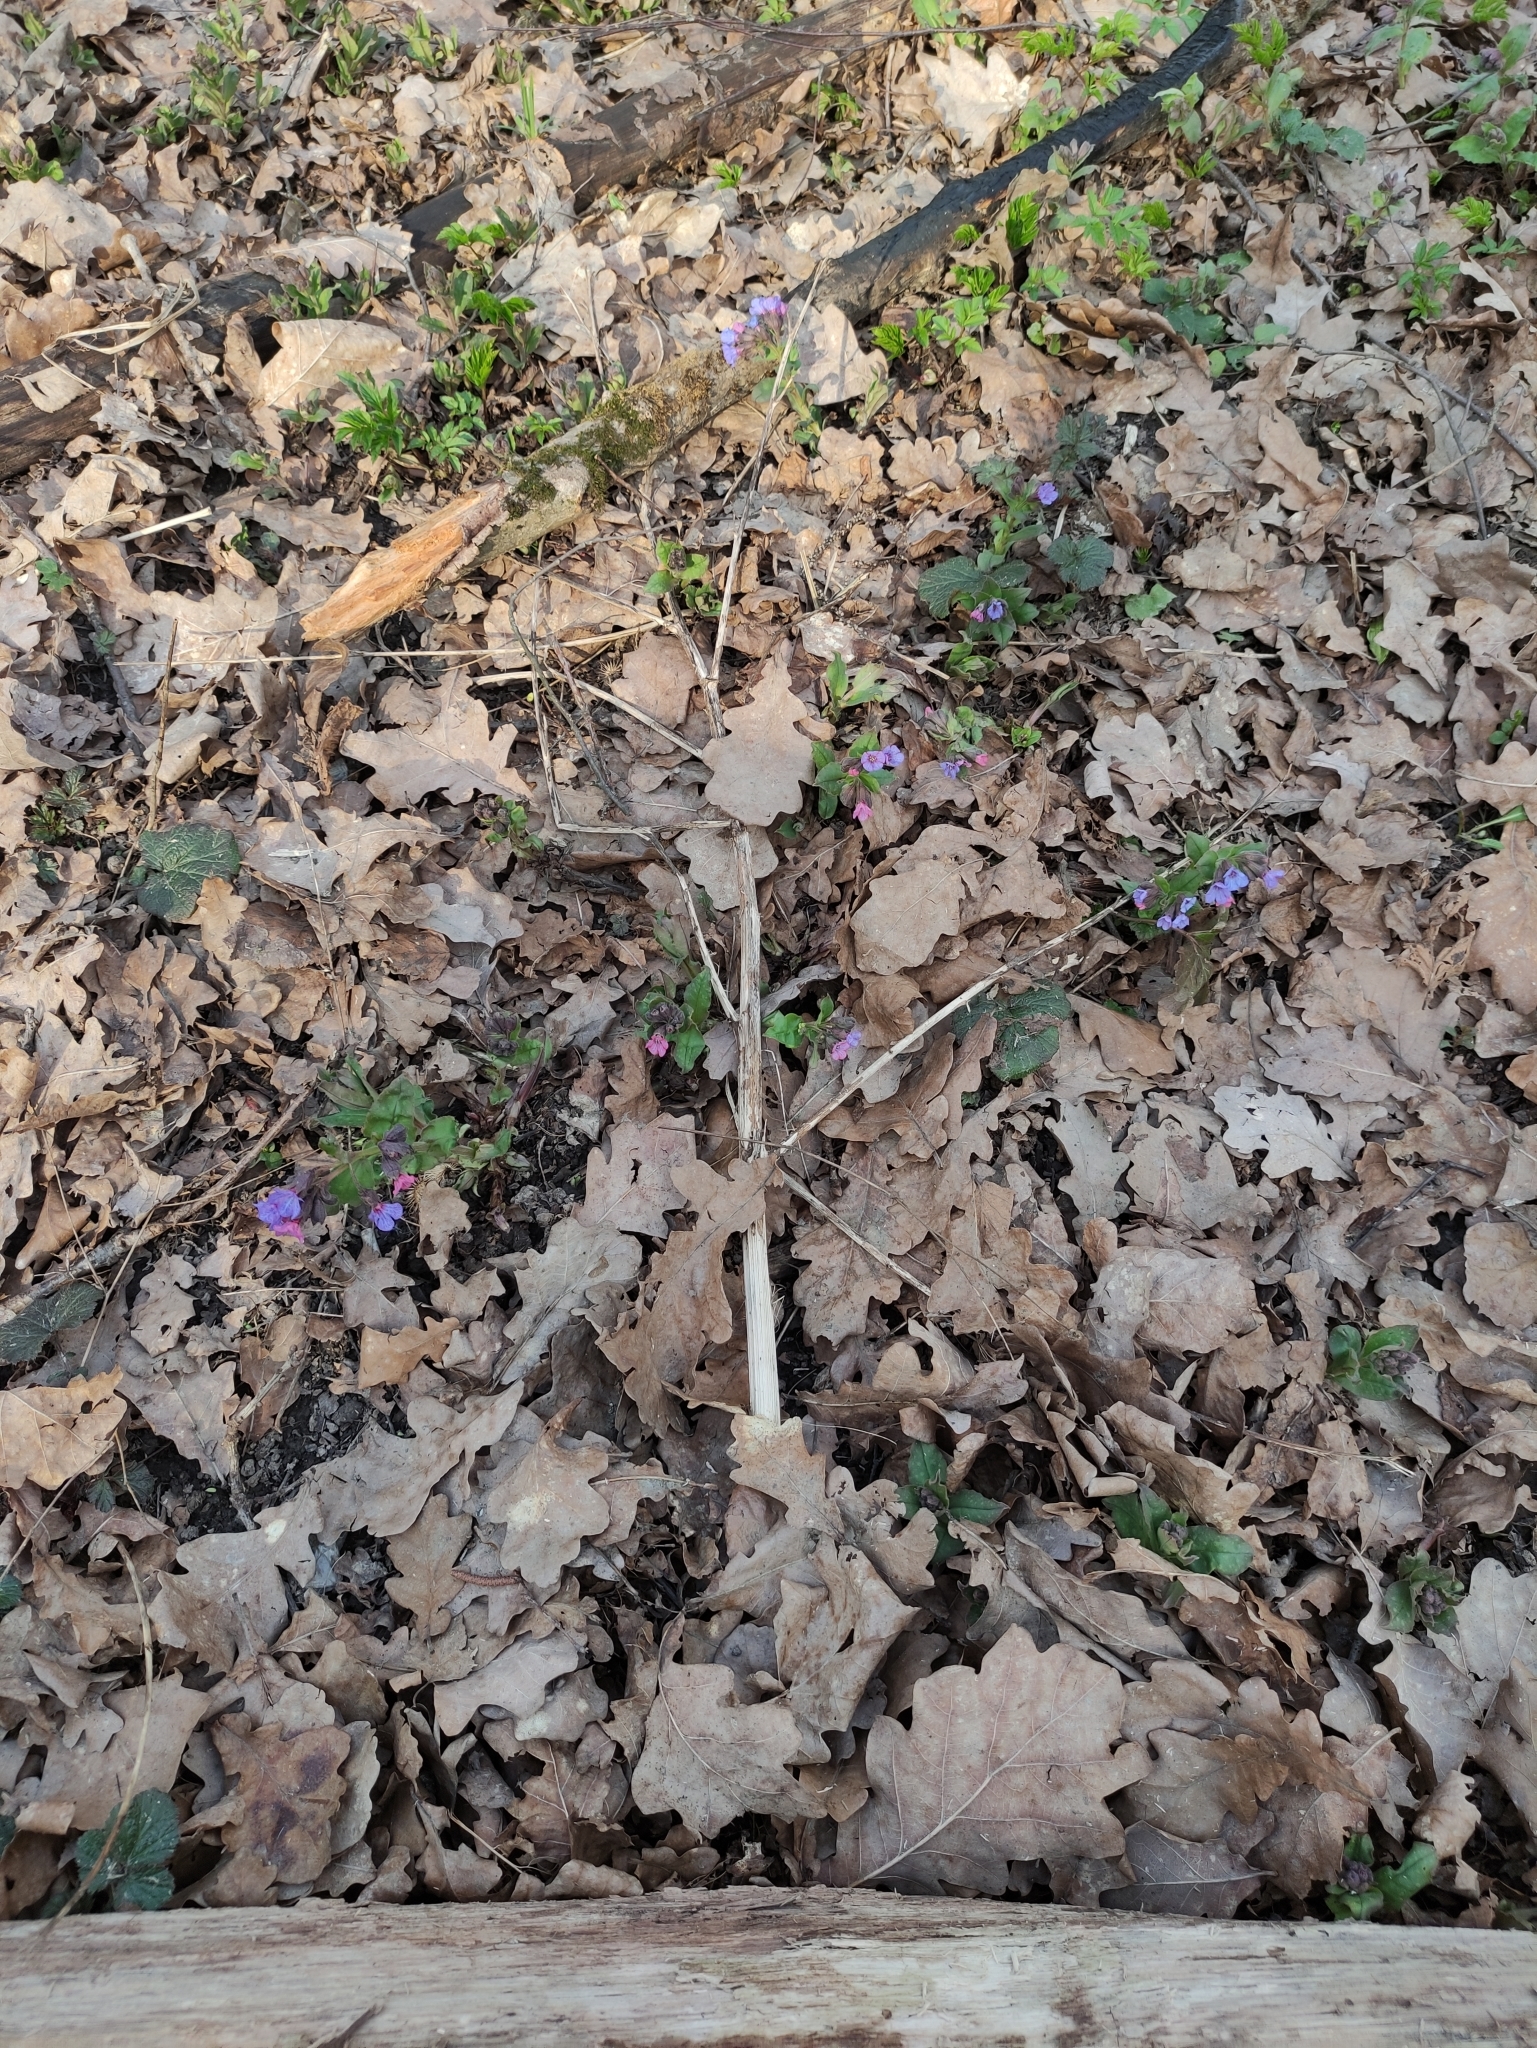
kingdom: Plantae
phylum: Tracheophyta
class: Magnoliopsida
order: Boraginales
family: Boraginaceae
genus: Pulmonaria
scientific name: Pulmonaria obscura
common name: Suffolk lungwort
